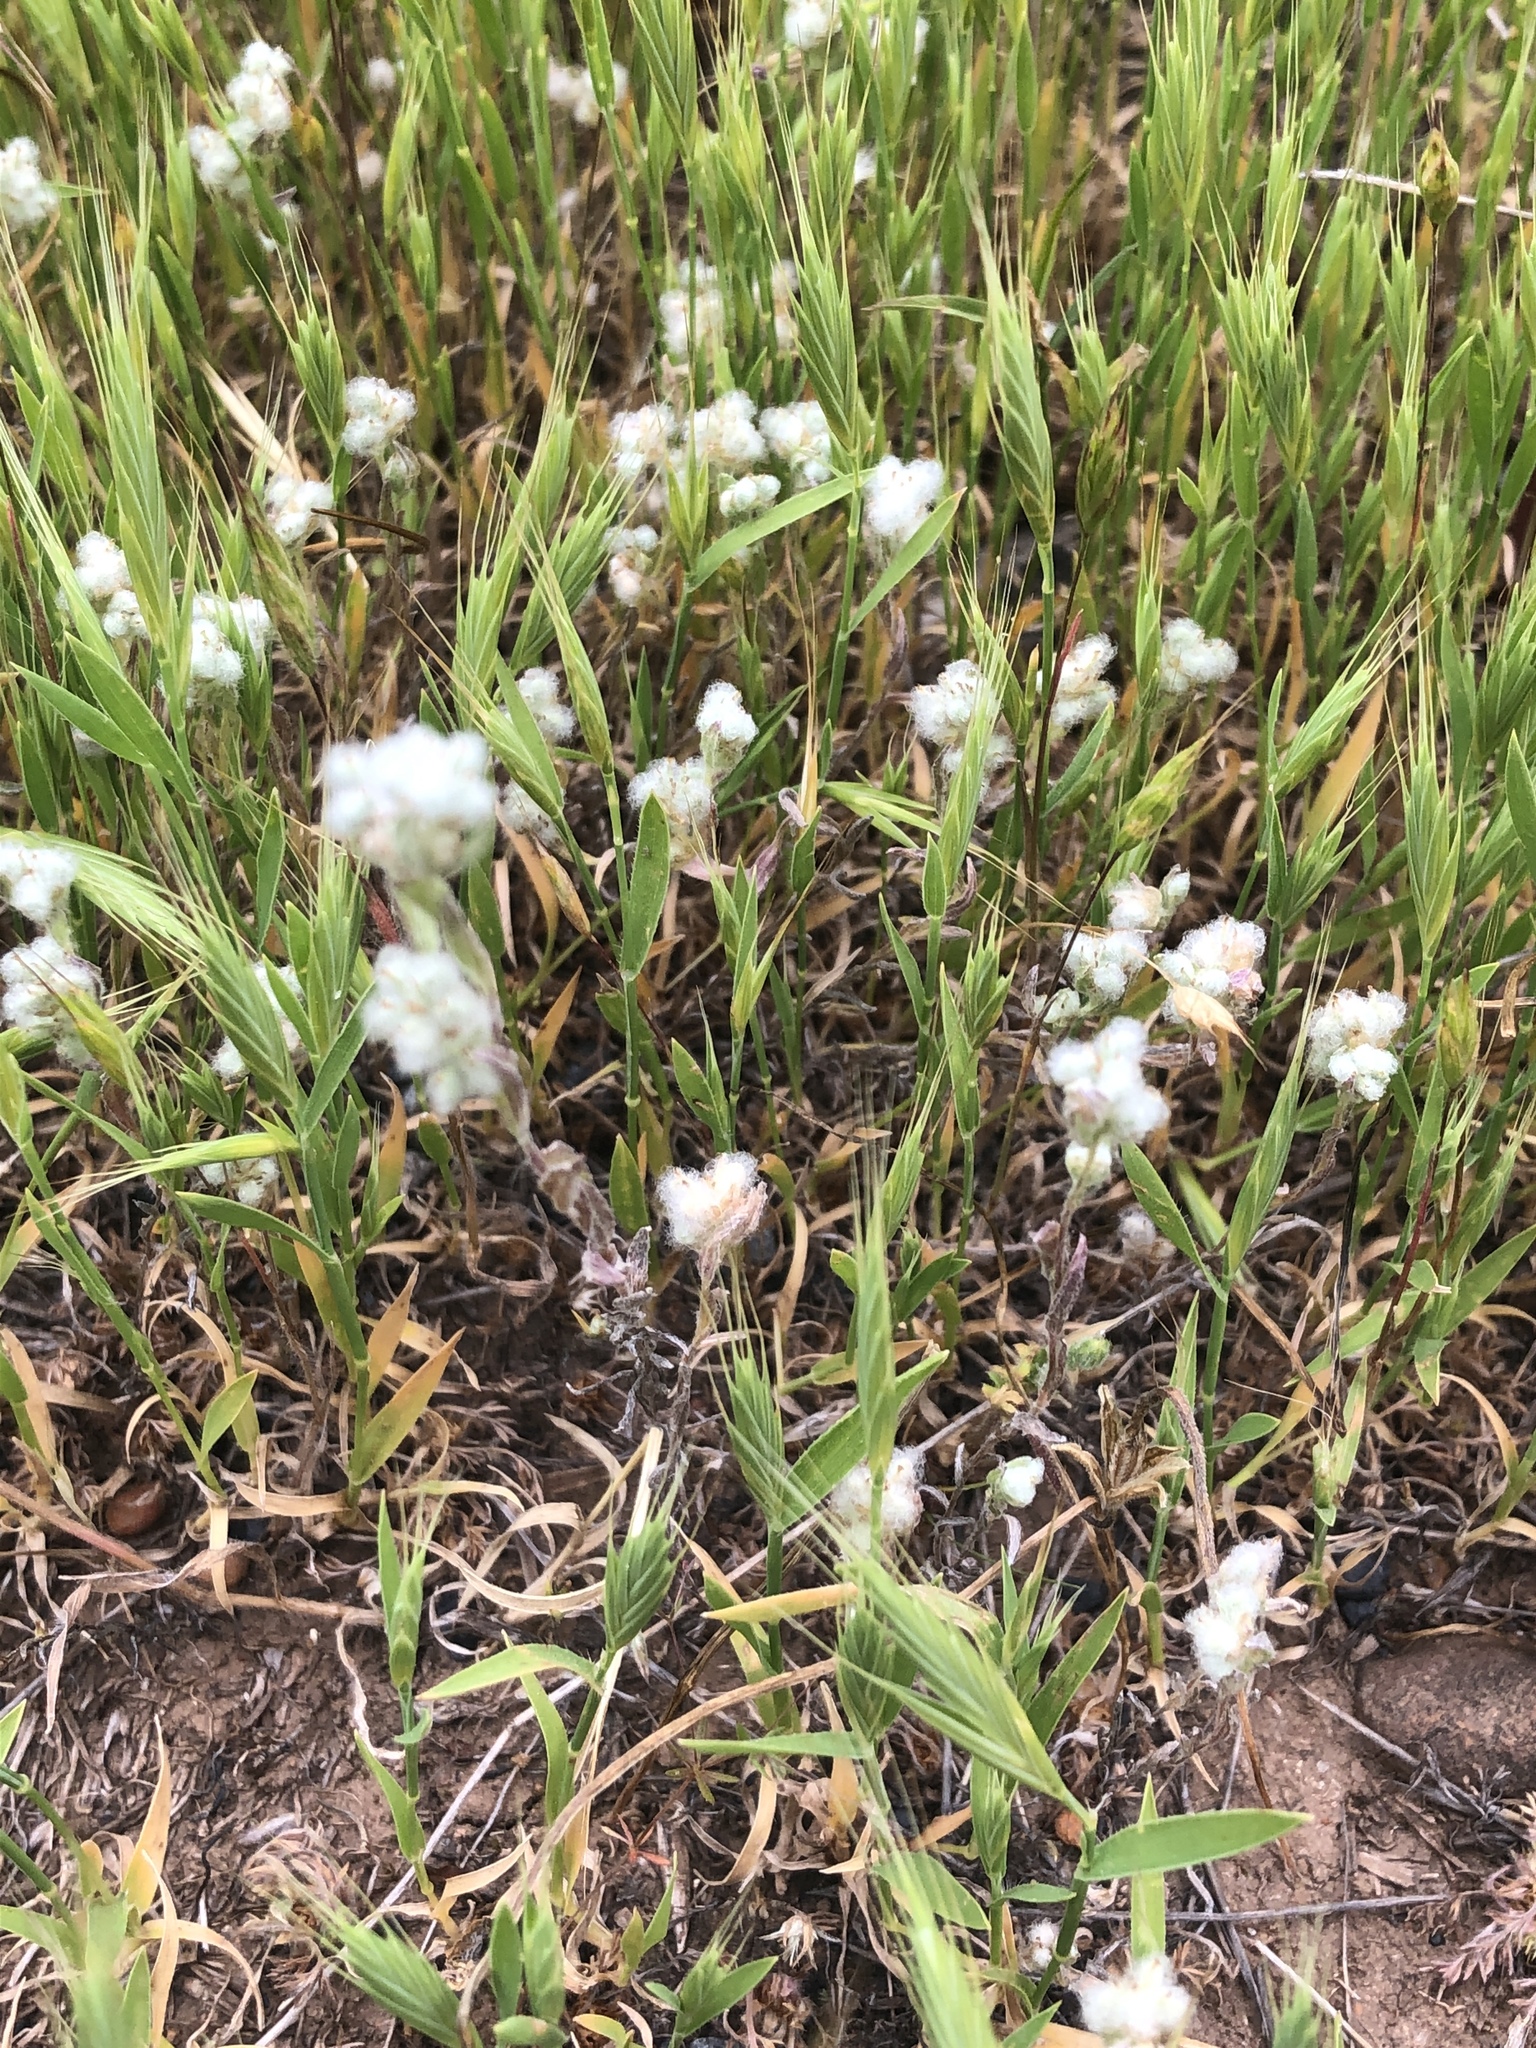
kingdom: Plantae
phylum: Tracheophyta
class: Magnoliopsida
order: Asterales
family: Asteraceae
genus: Bombycilaena
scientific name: Bombycilaena californica
